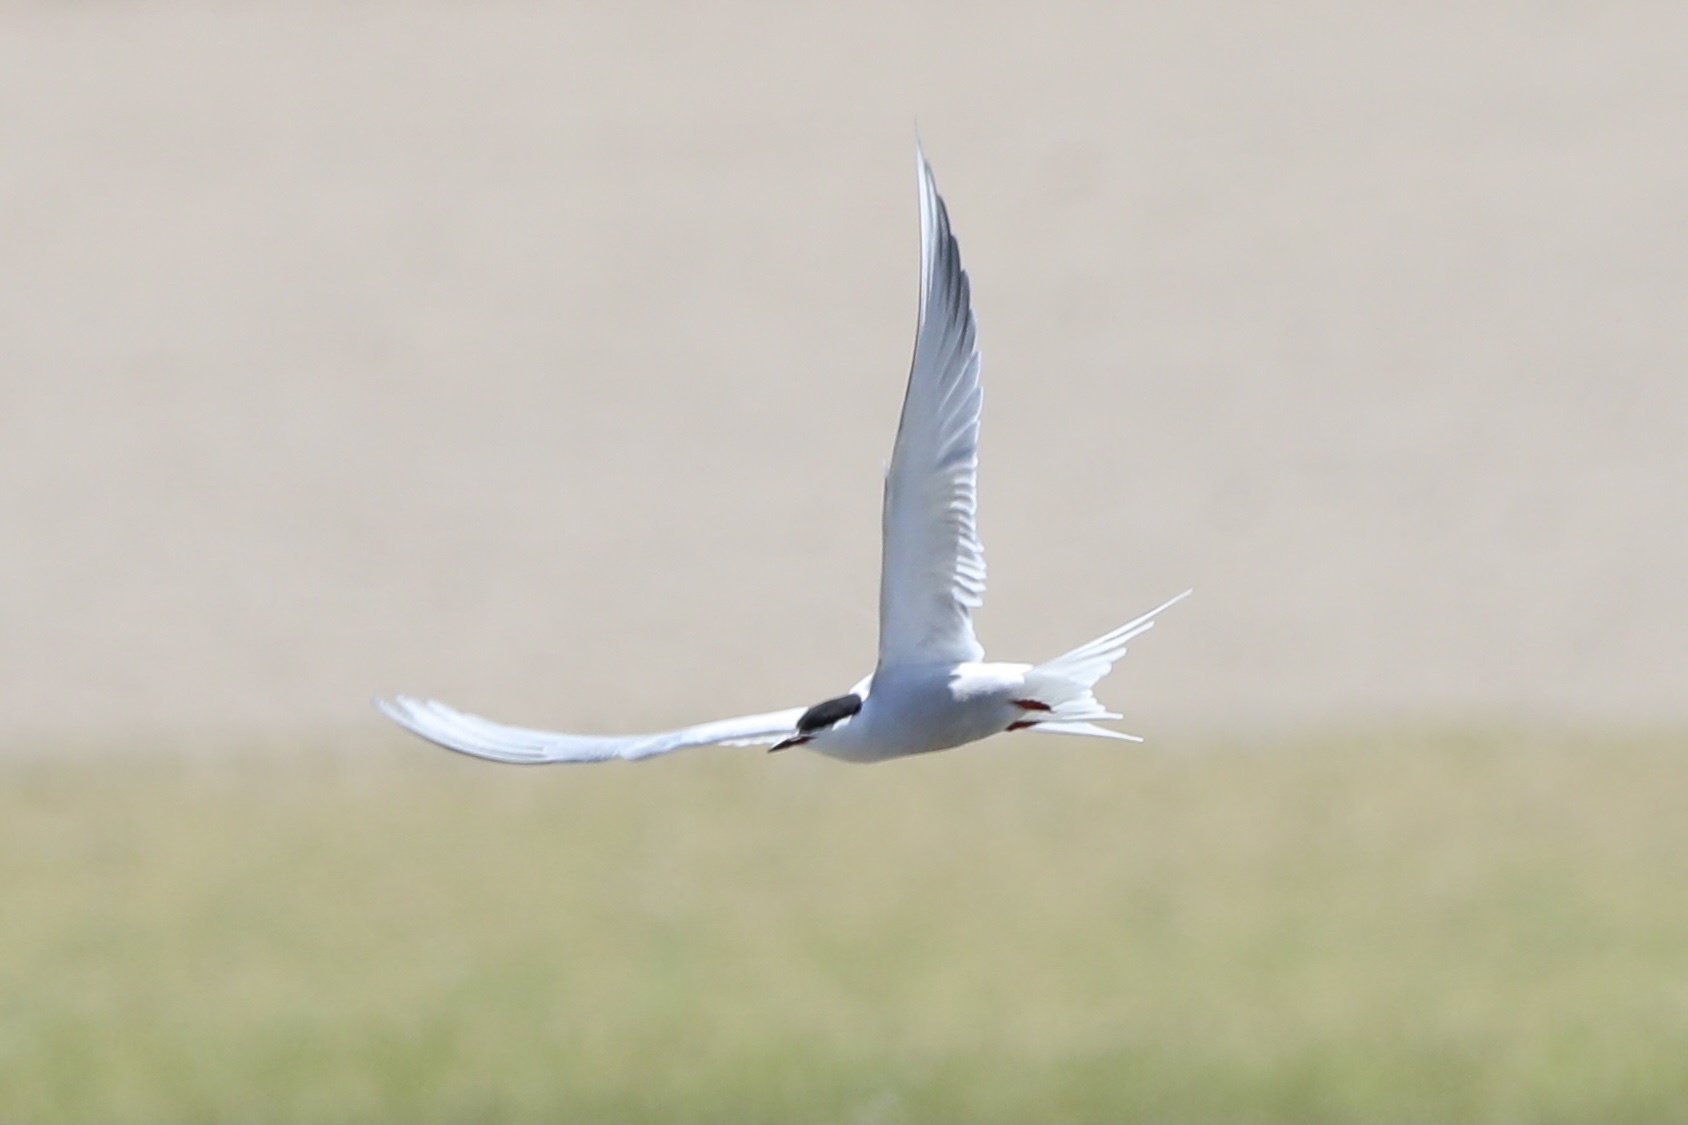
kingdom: Animalia
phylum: Chordata
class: Aves
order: Charadriiformes
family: Laridae
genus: Sterna
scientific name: Sterna hirundo
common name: Common tern
